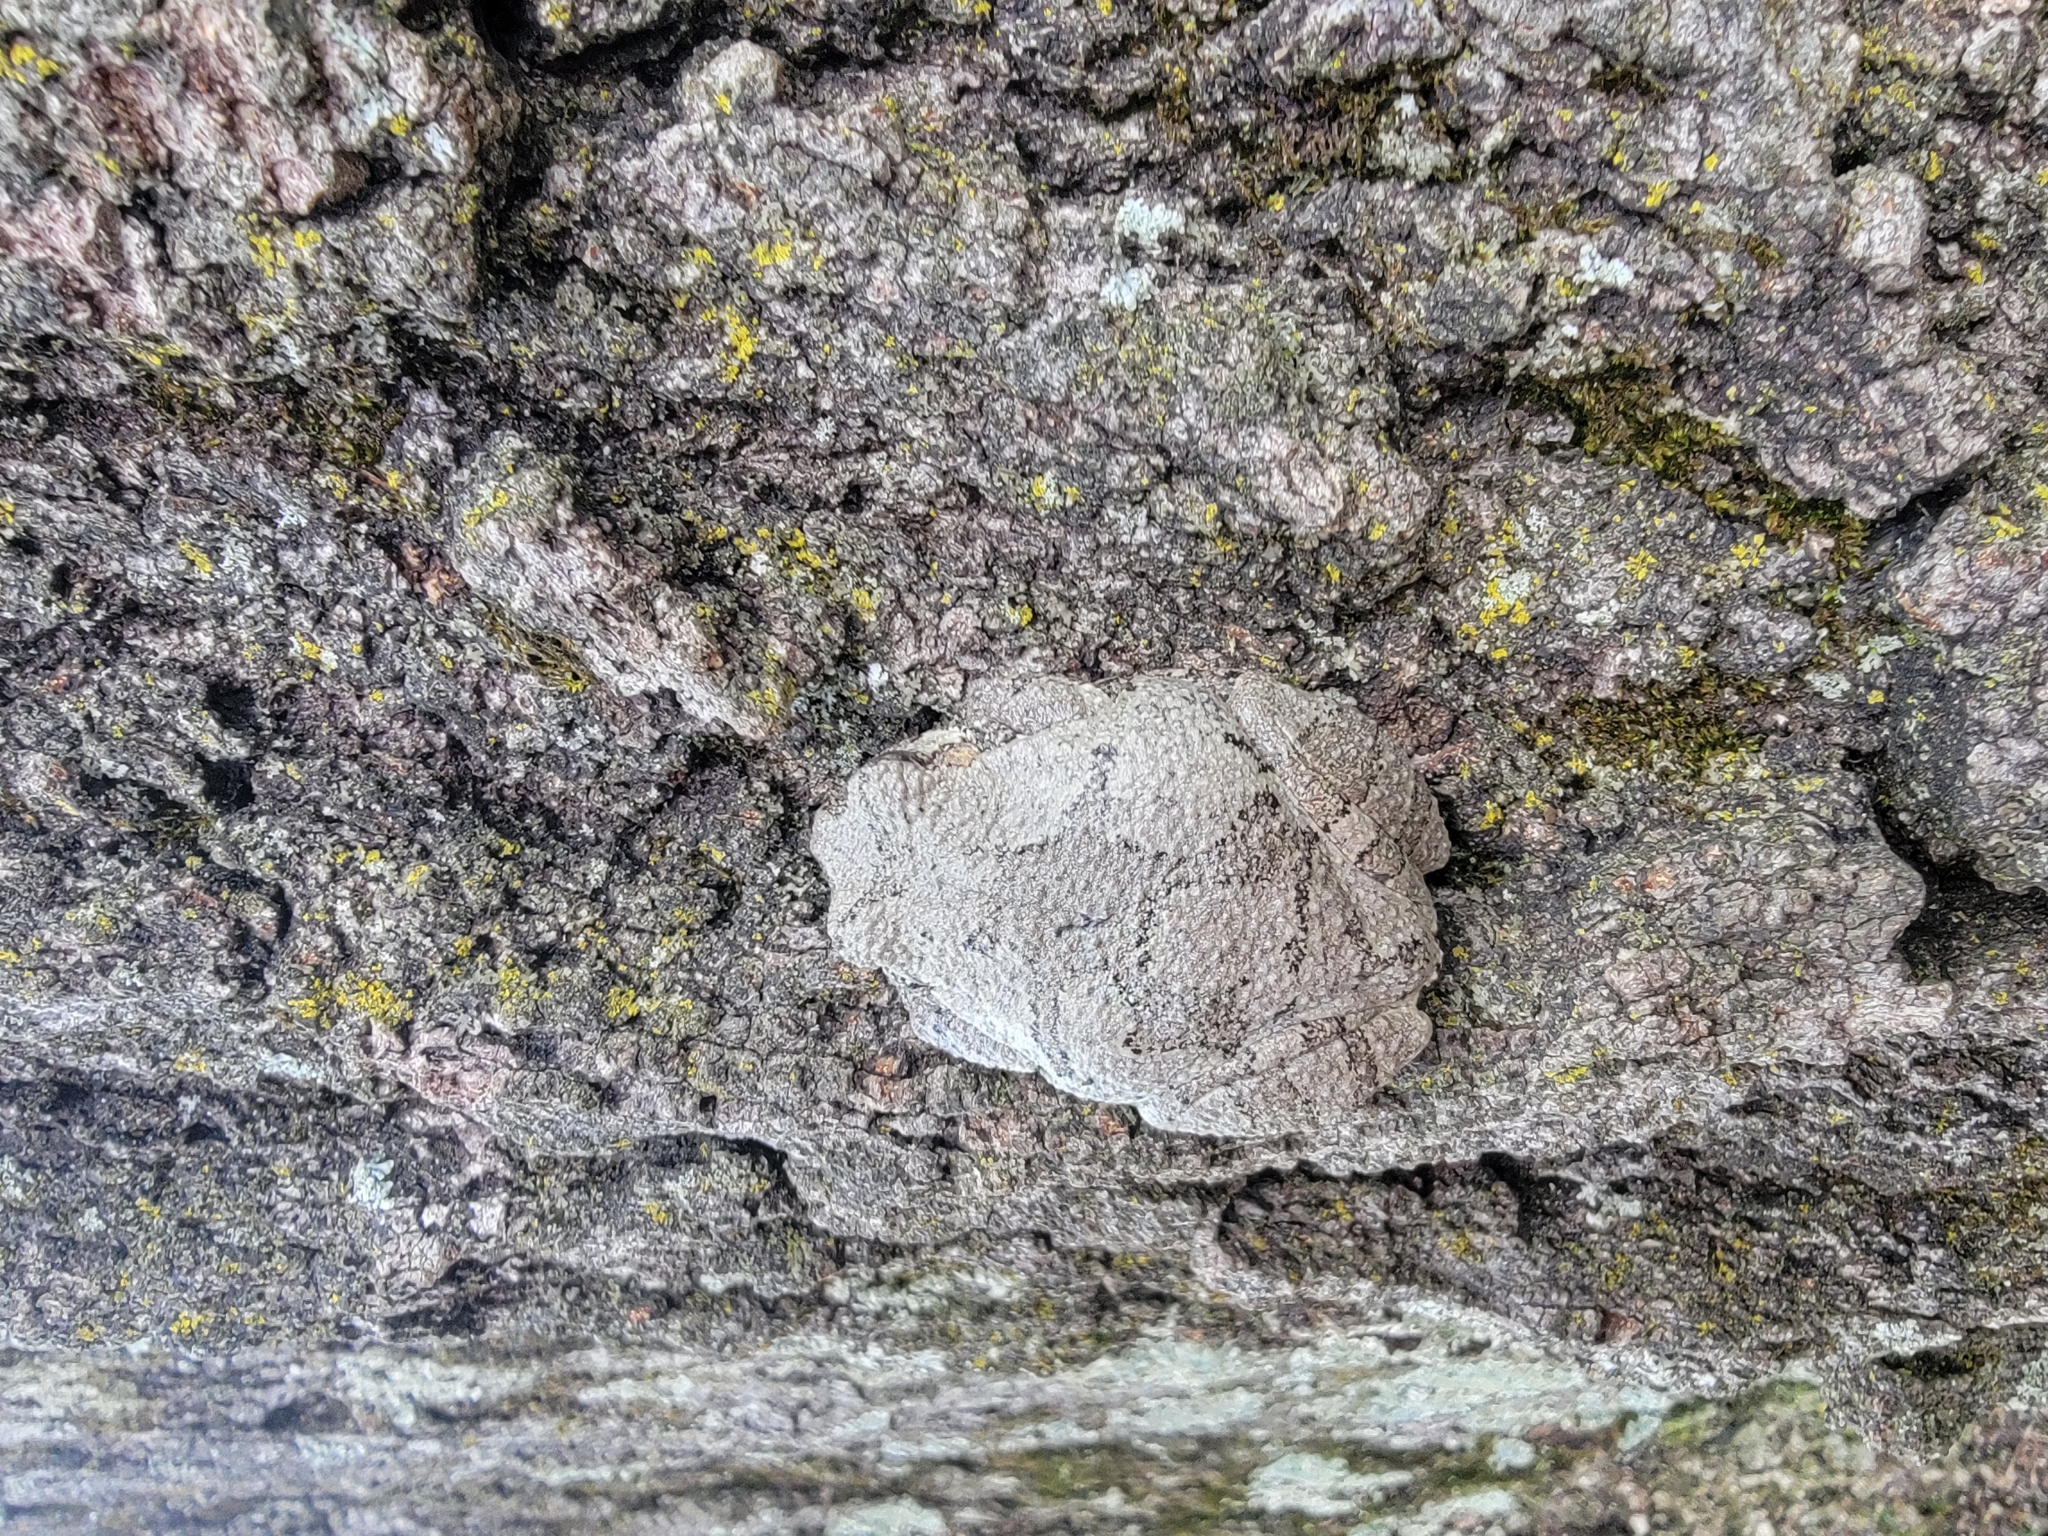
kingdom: Animalia
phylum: Chordata
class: Amphibia
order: Anura
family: Hylidae
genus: Dryophytes
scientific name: Dryophytes chrysoscelis
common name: Cope's gray treefrog
